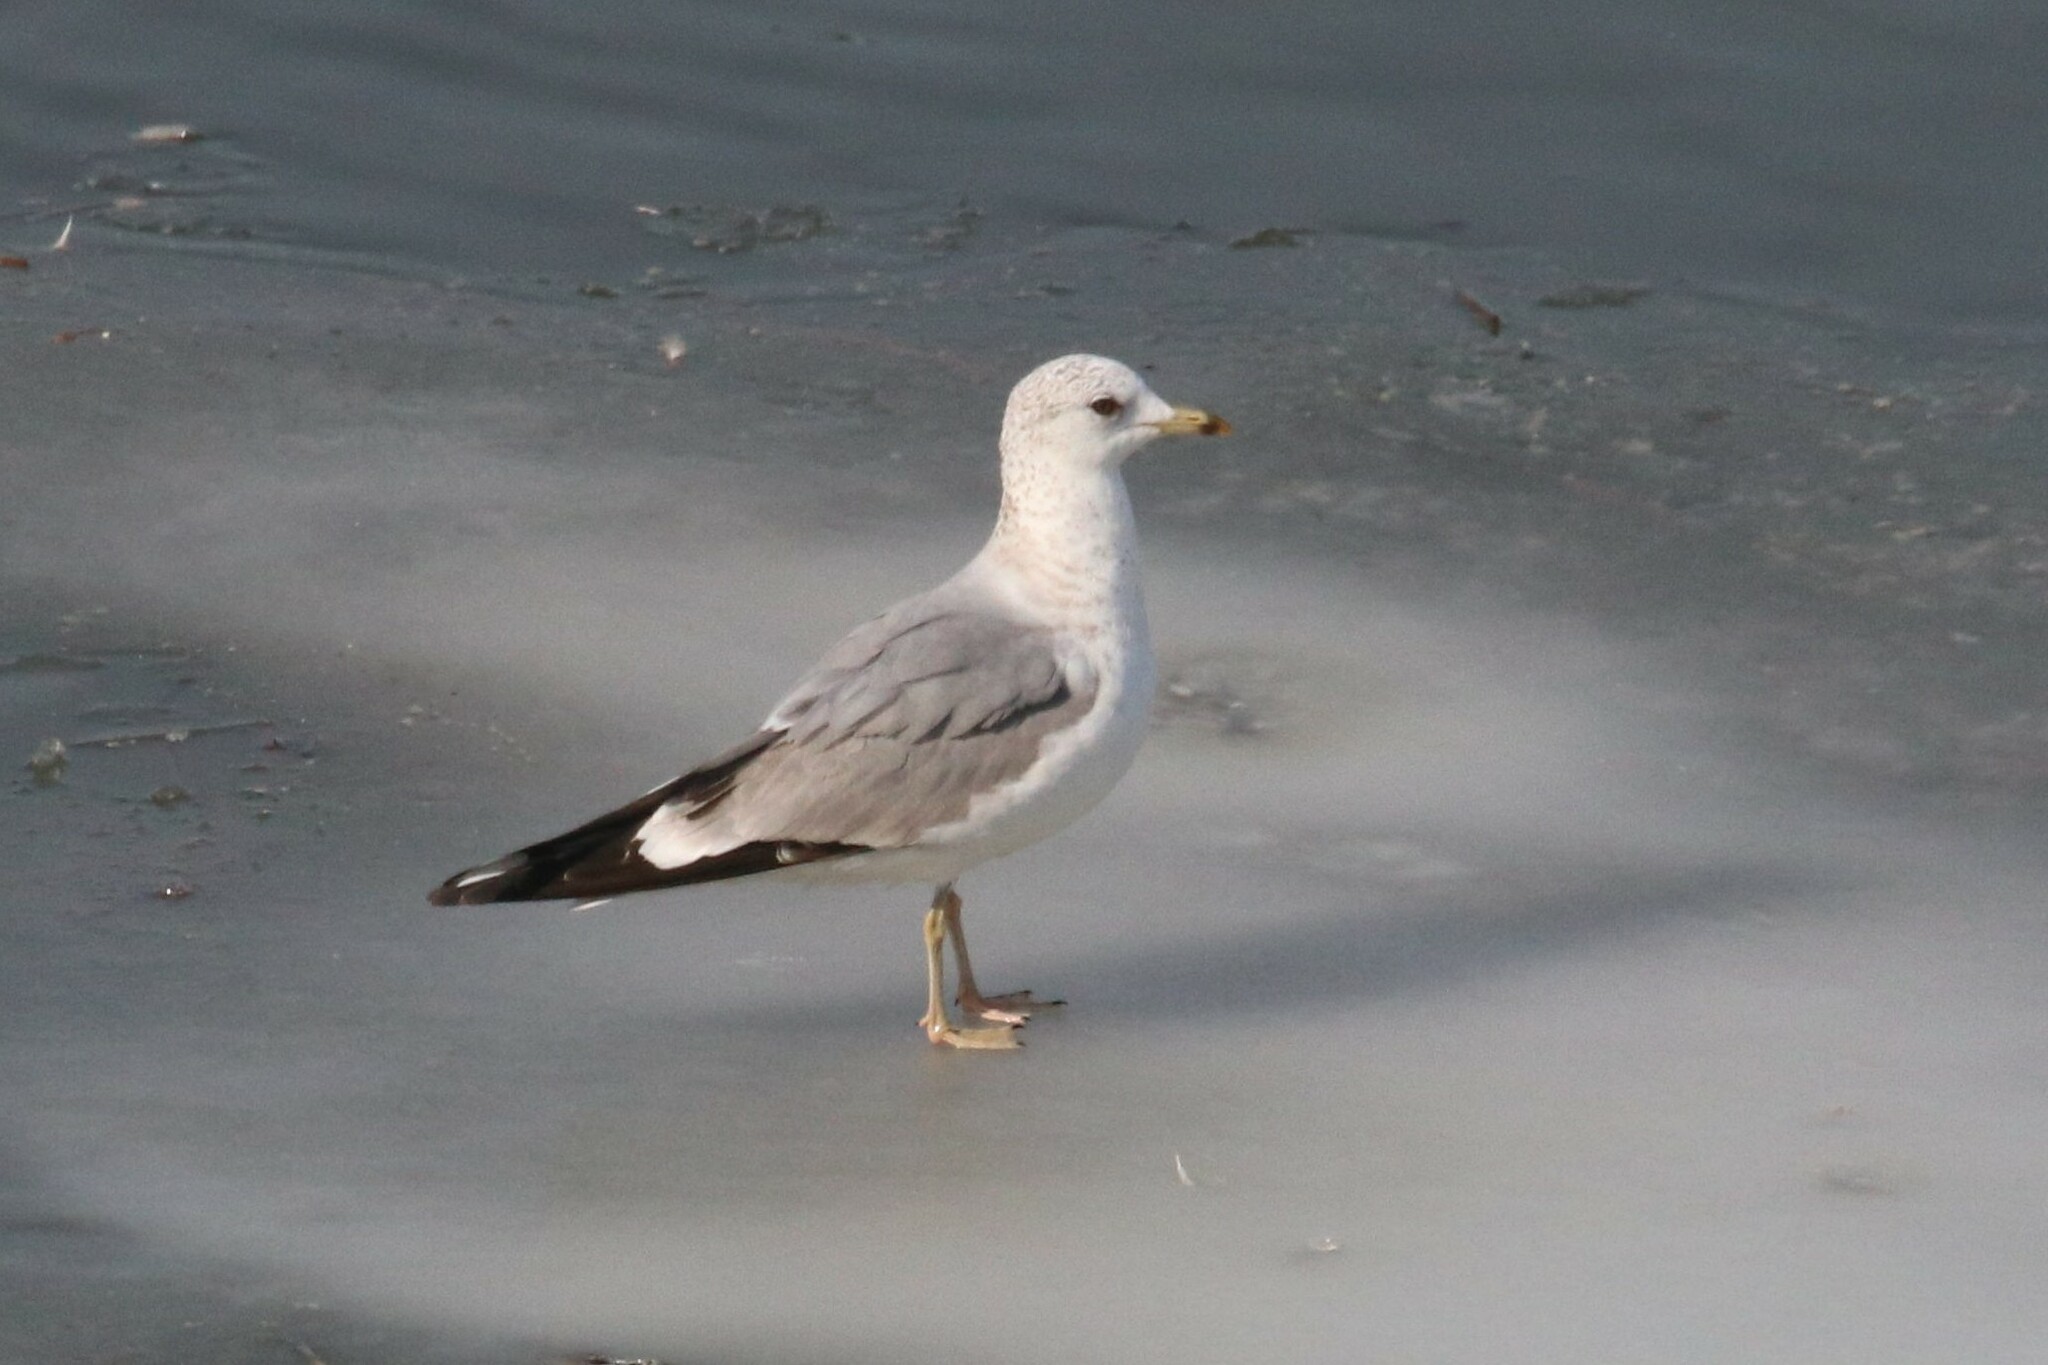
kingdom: Animalia
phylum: Chordata
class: Aves
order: Charadriiformes
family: Laridae
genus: Larus
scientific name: Larus canus
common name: Mew gull
